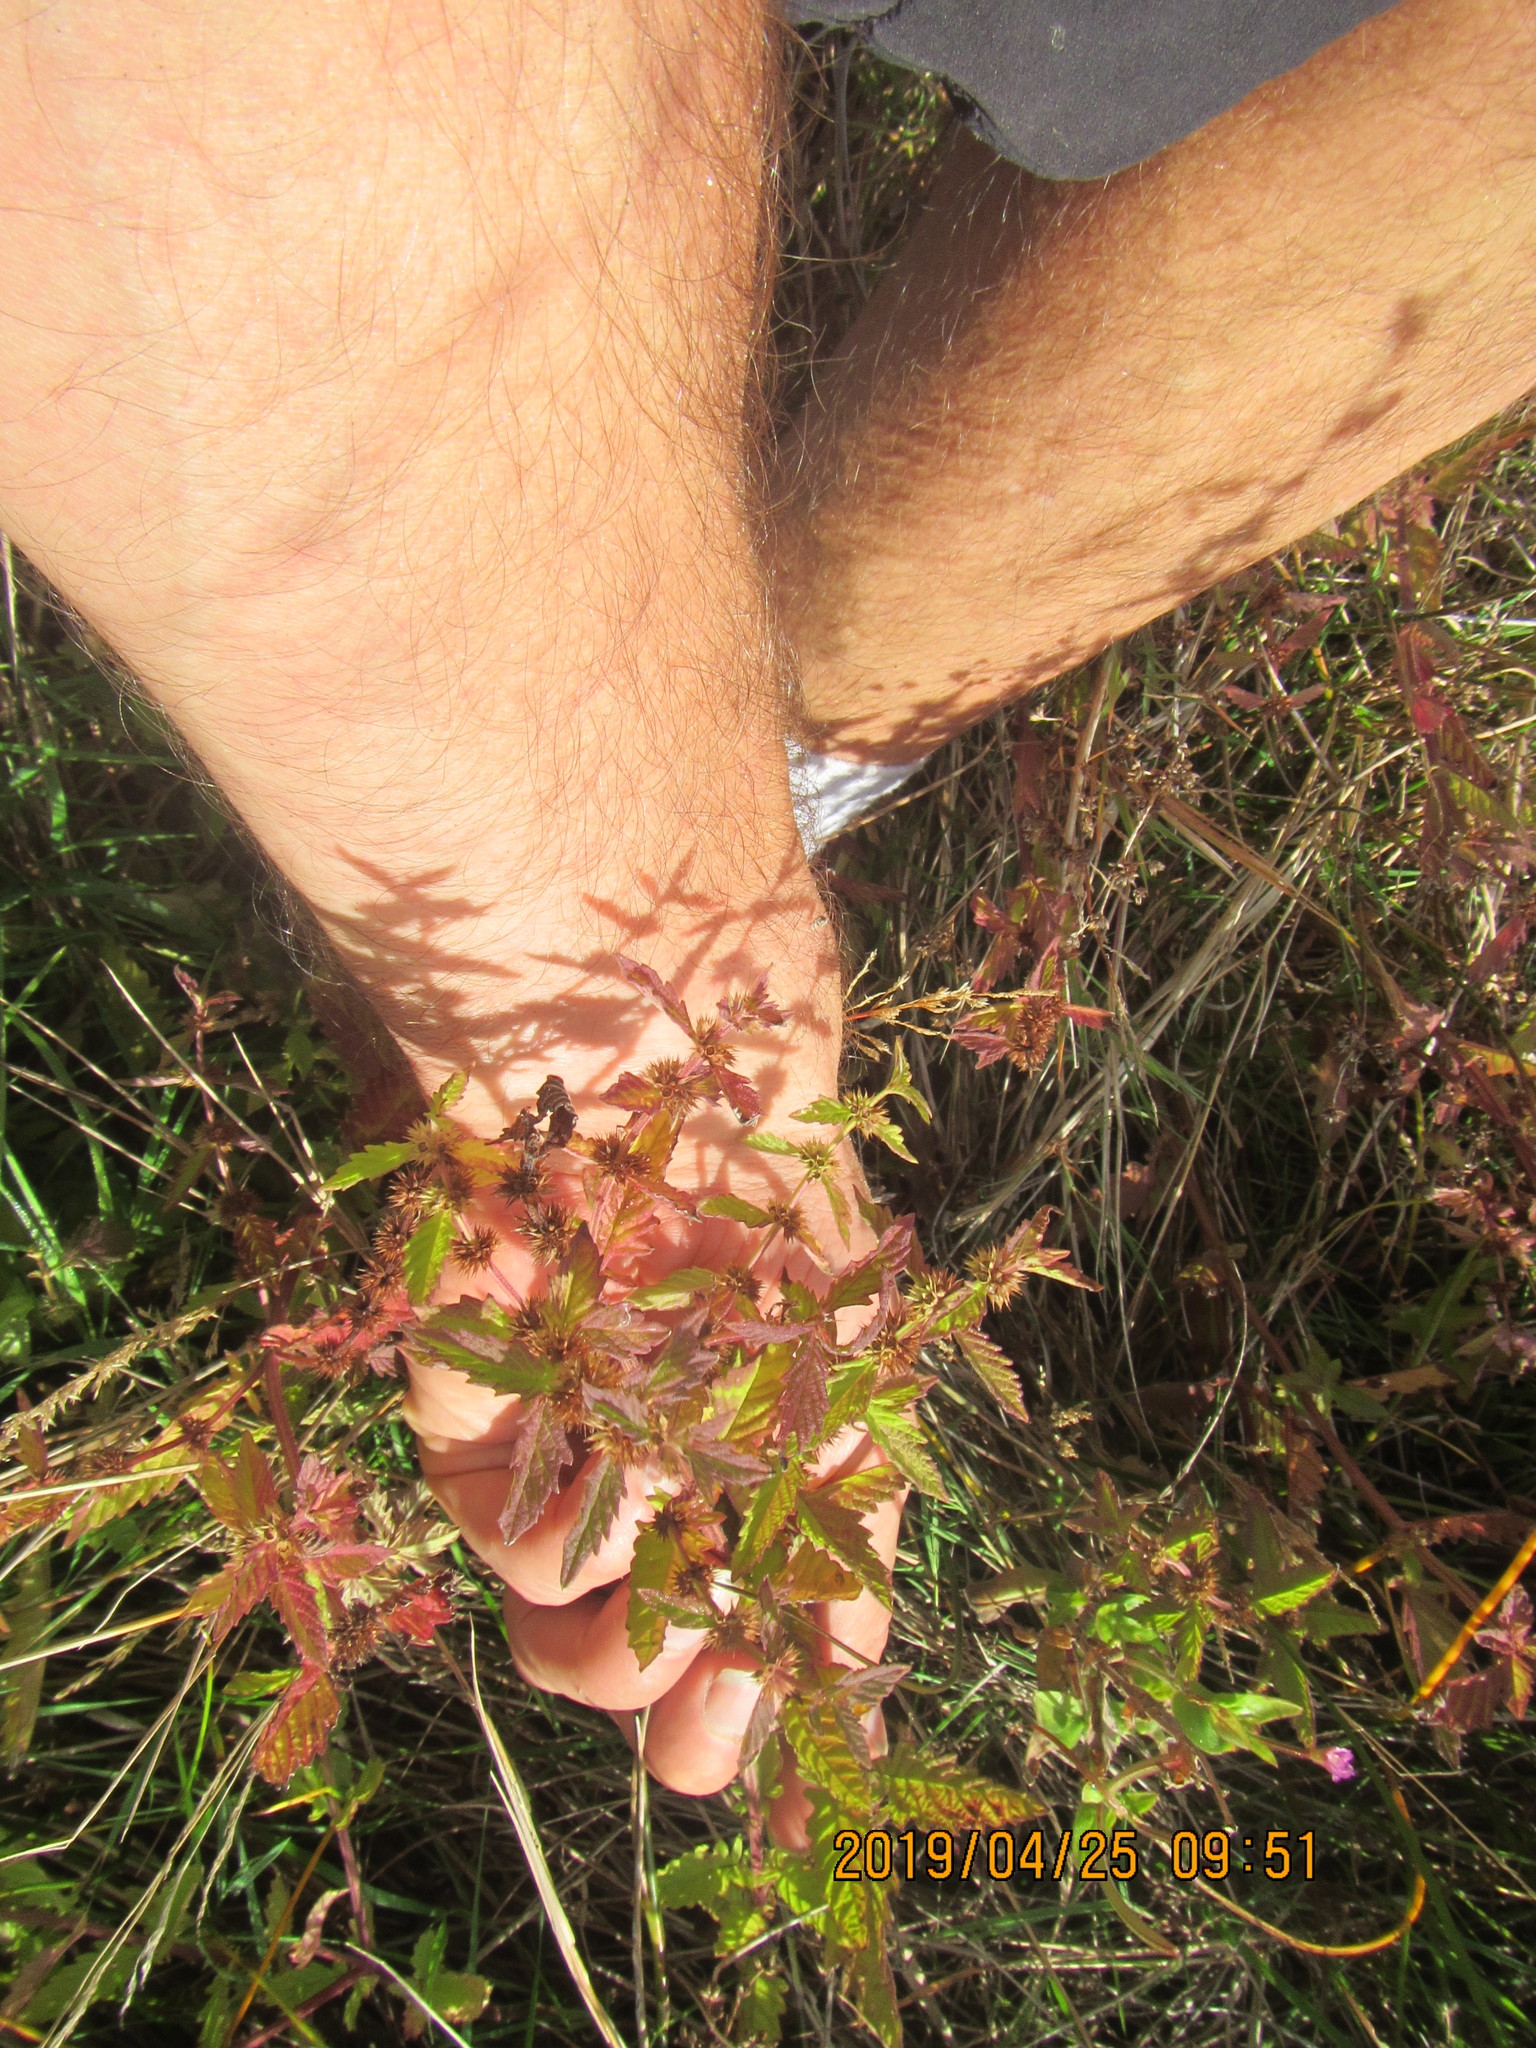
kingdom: Plantae
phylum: Tracheophyta
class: Magnoliopsida
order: Lamiales
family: Lamiaceae
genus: Lycopus
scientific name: Lycopus europaeus
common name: European bugleweed
